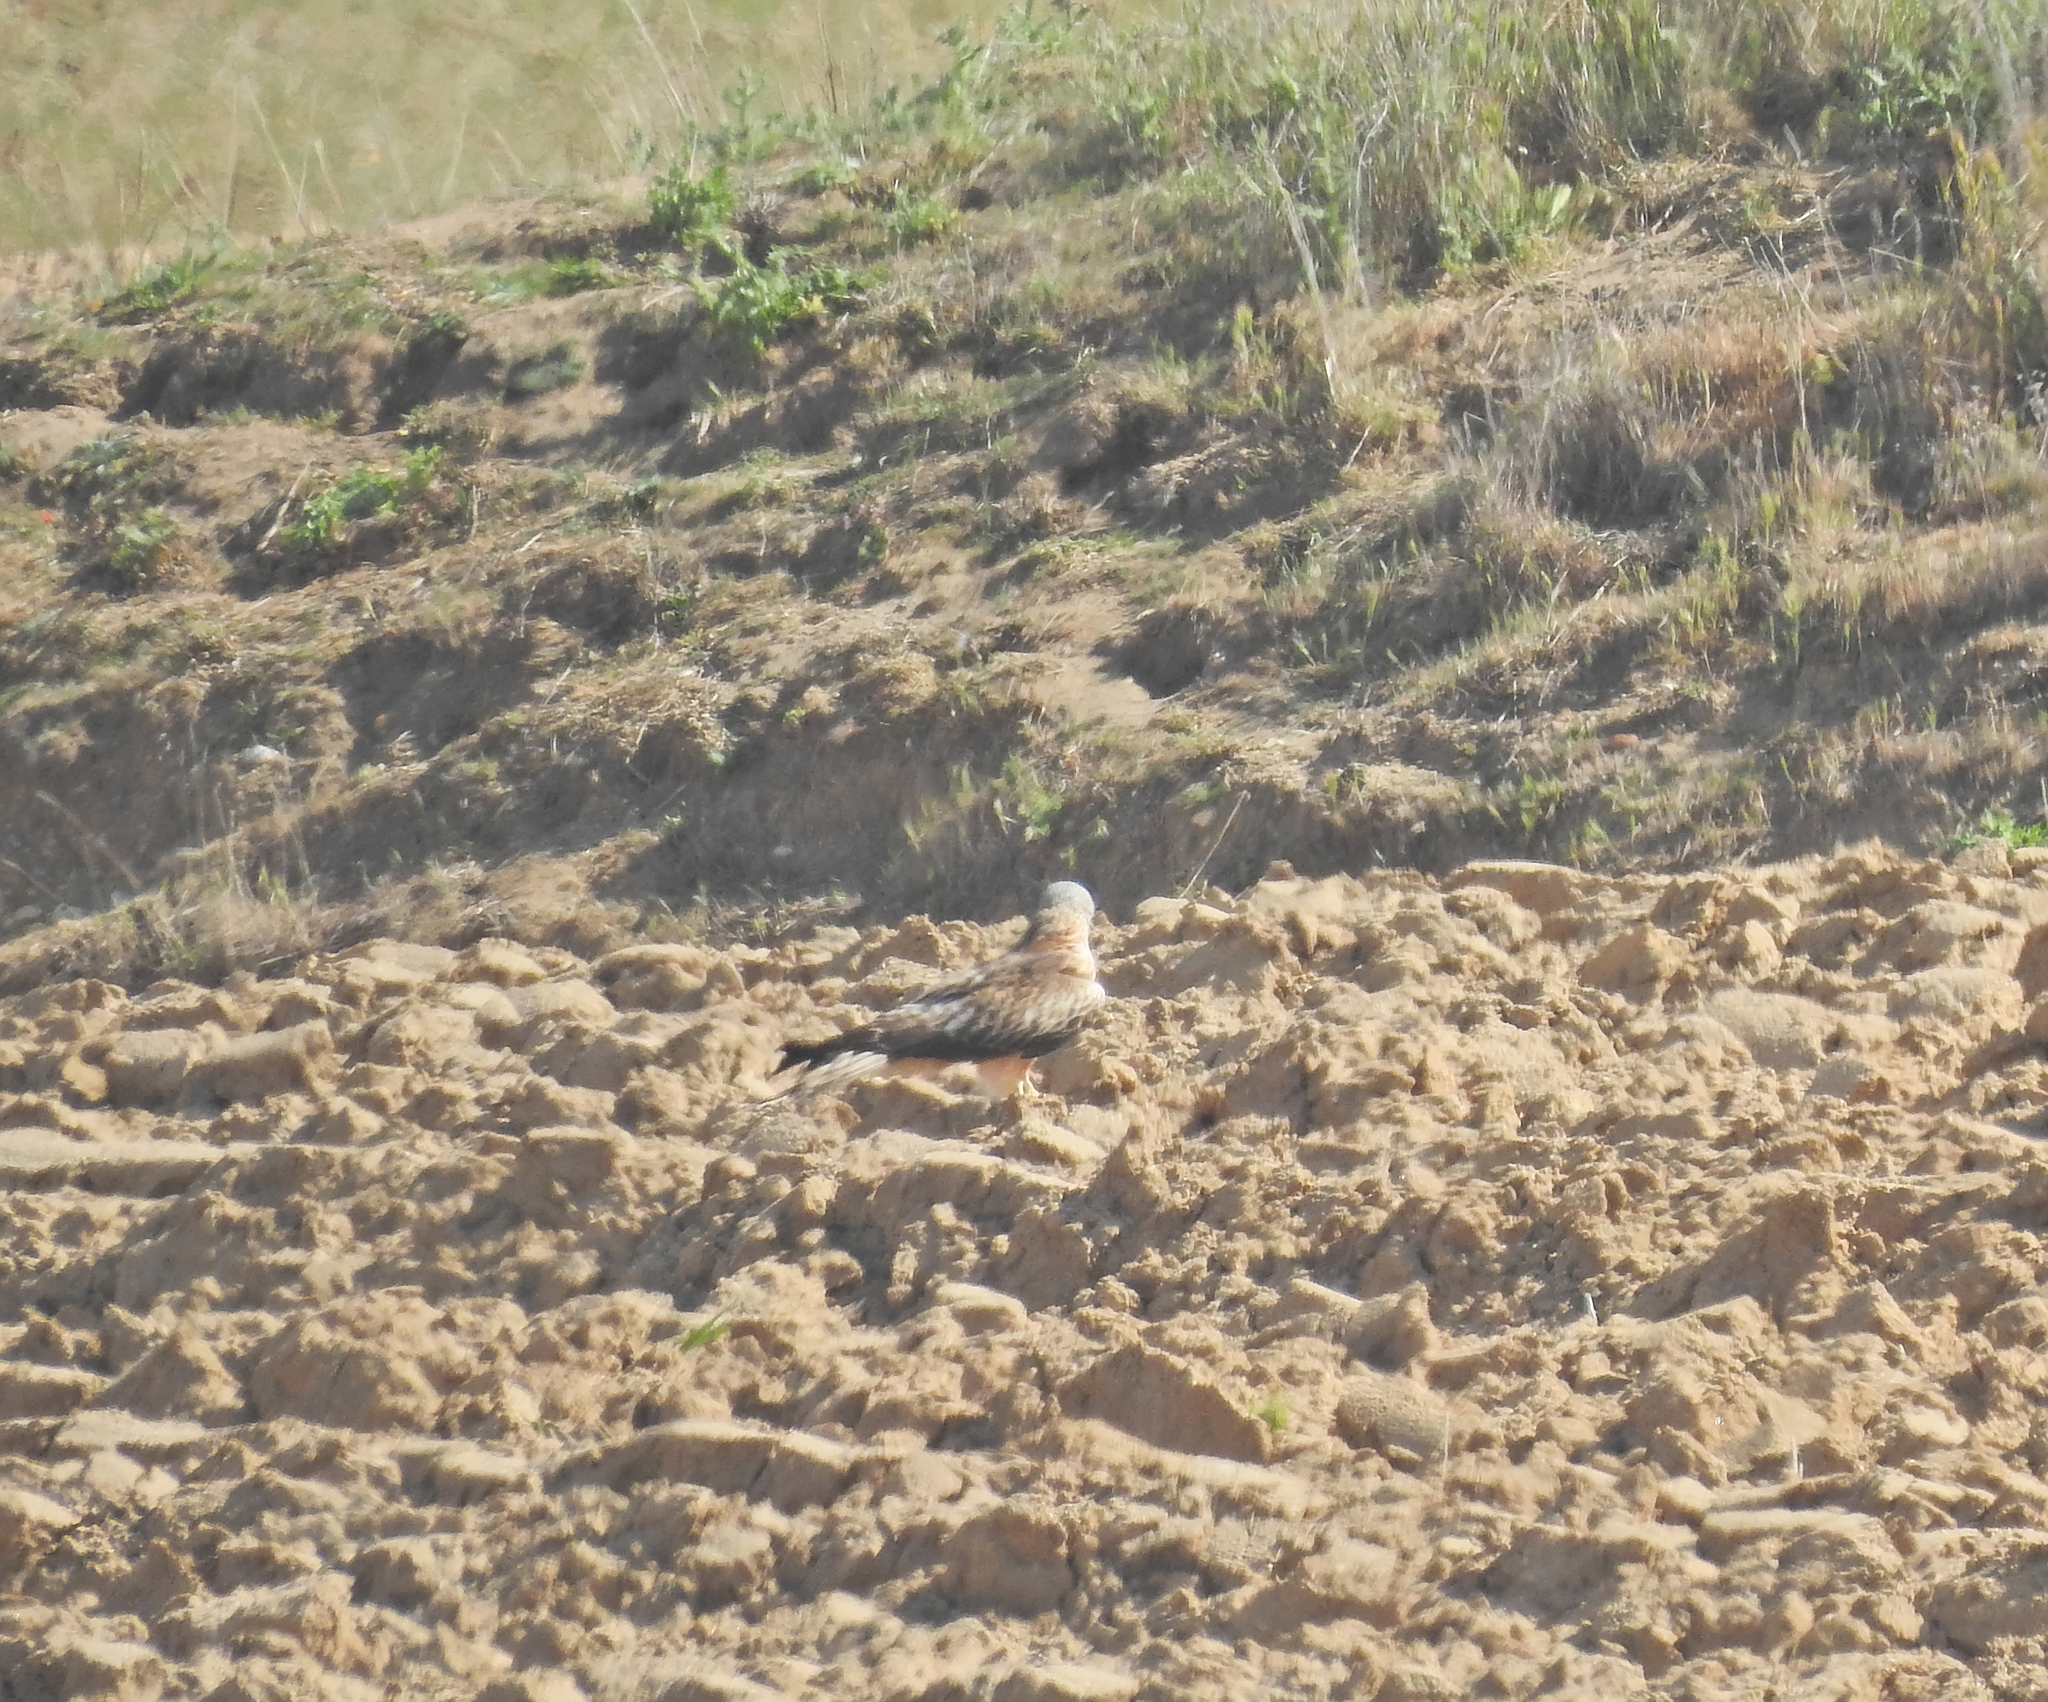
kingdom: Animalia
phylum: Chordata
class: Aves
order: Accipitriformes
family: Accipitridae
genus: Milvus
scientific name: Milvus milvus
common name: Red kite
